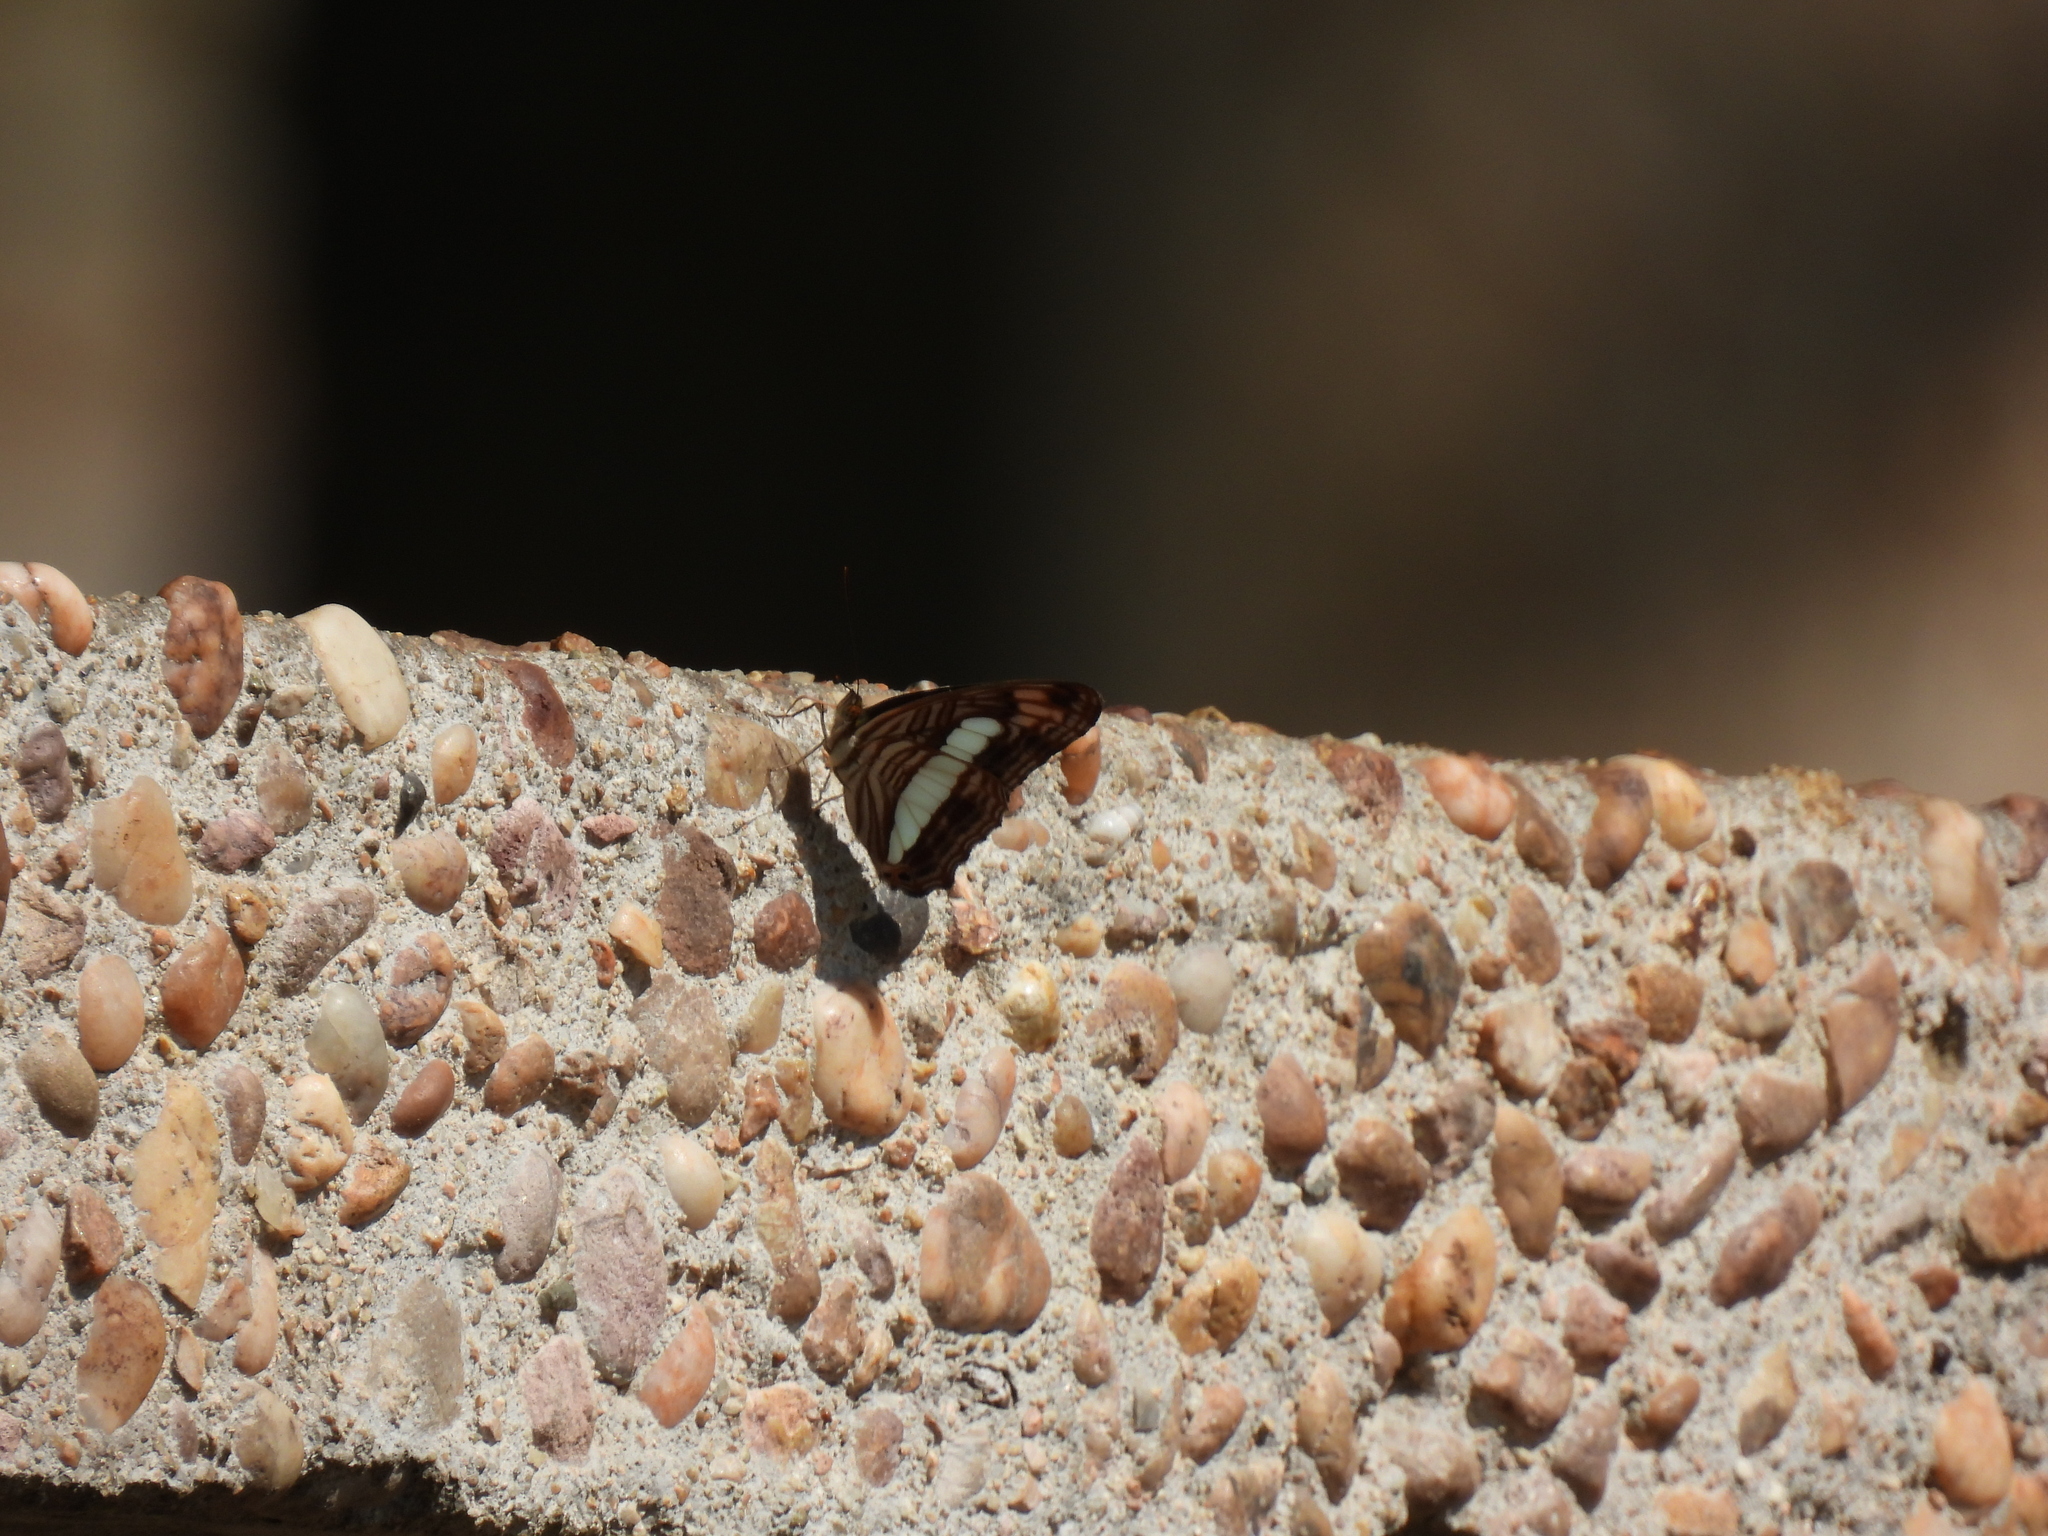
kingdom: Animalia
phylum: Arthropoda
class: Insecta
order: Lepidoptera
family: Nymphalidae
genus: Limenitis
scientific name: Limenitis iphiclus
